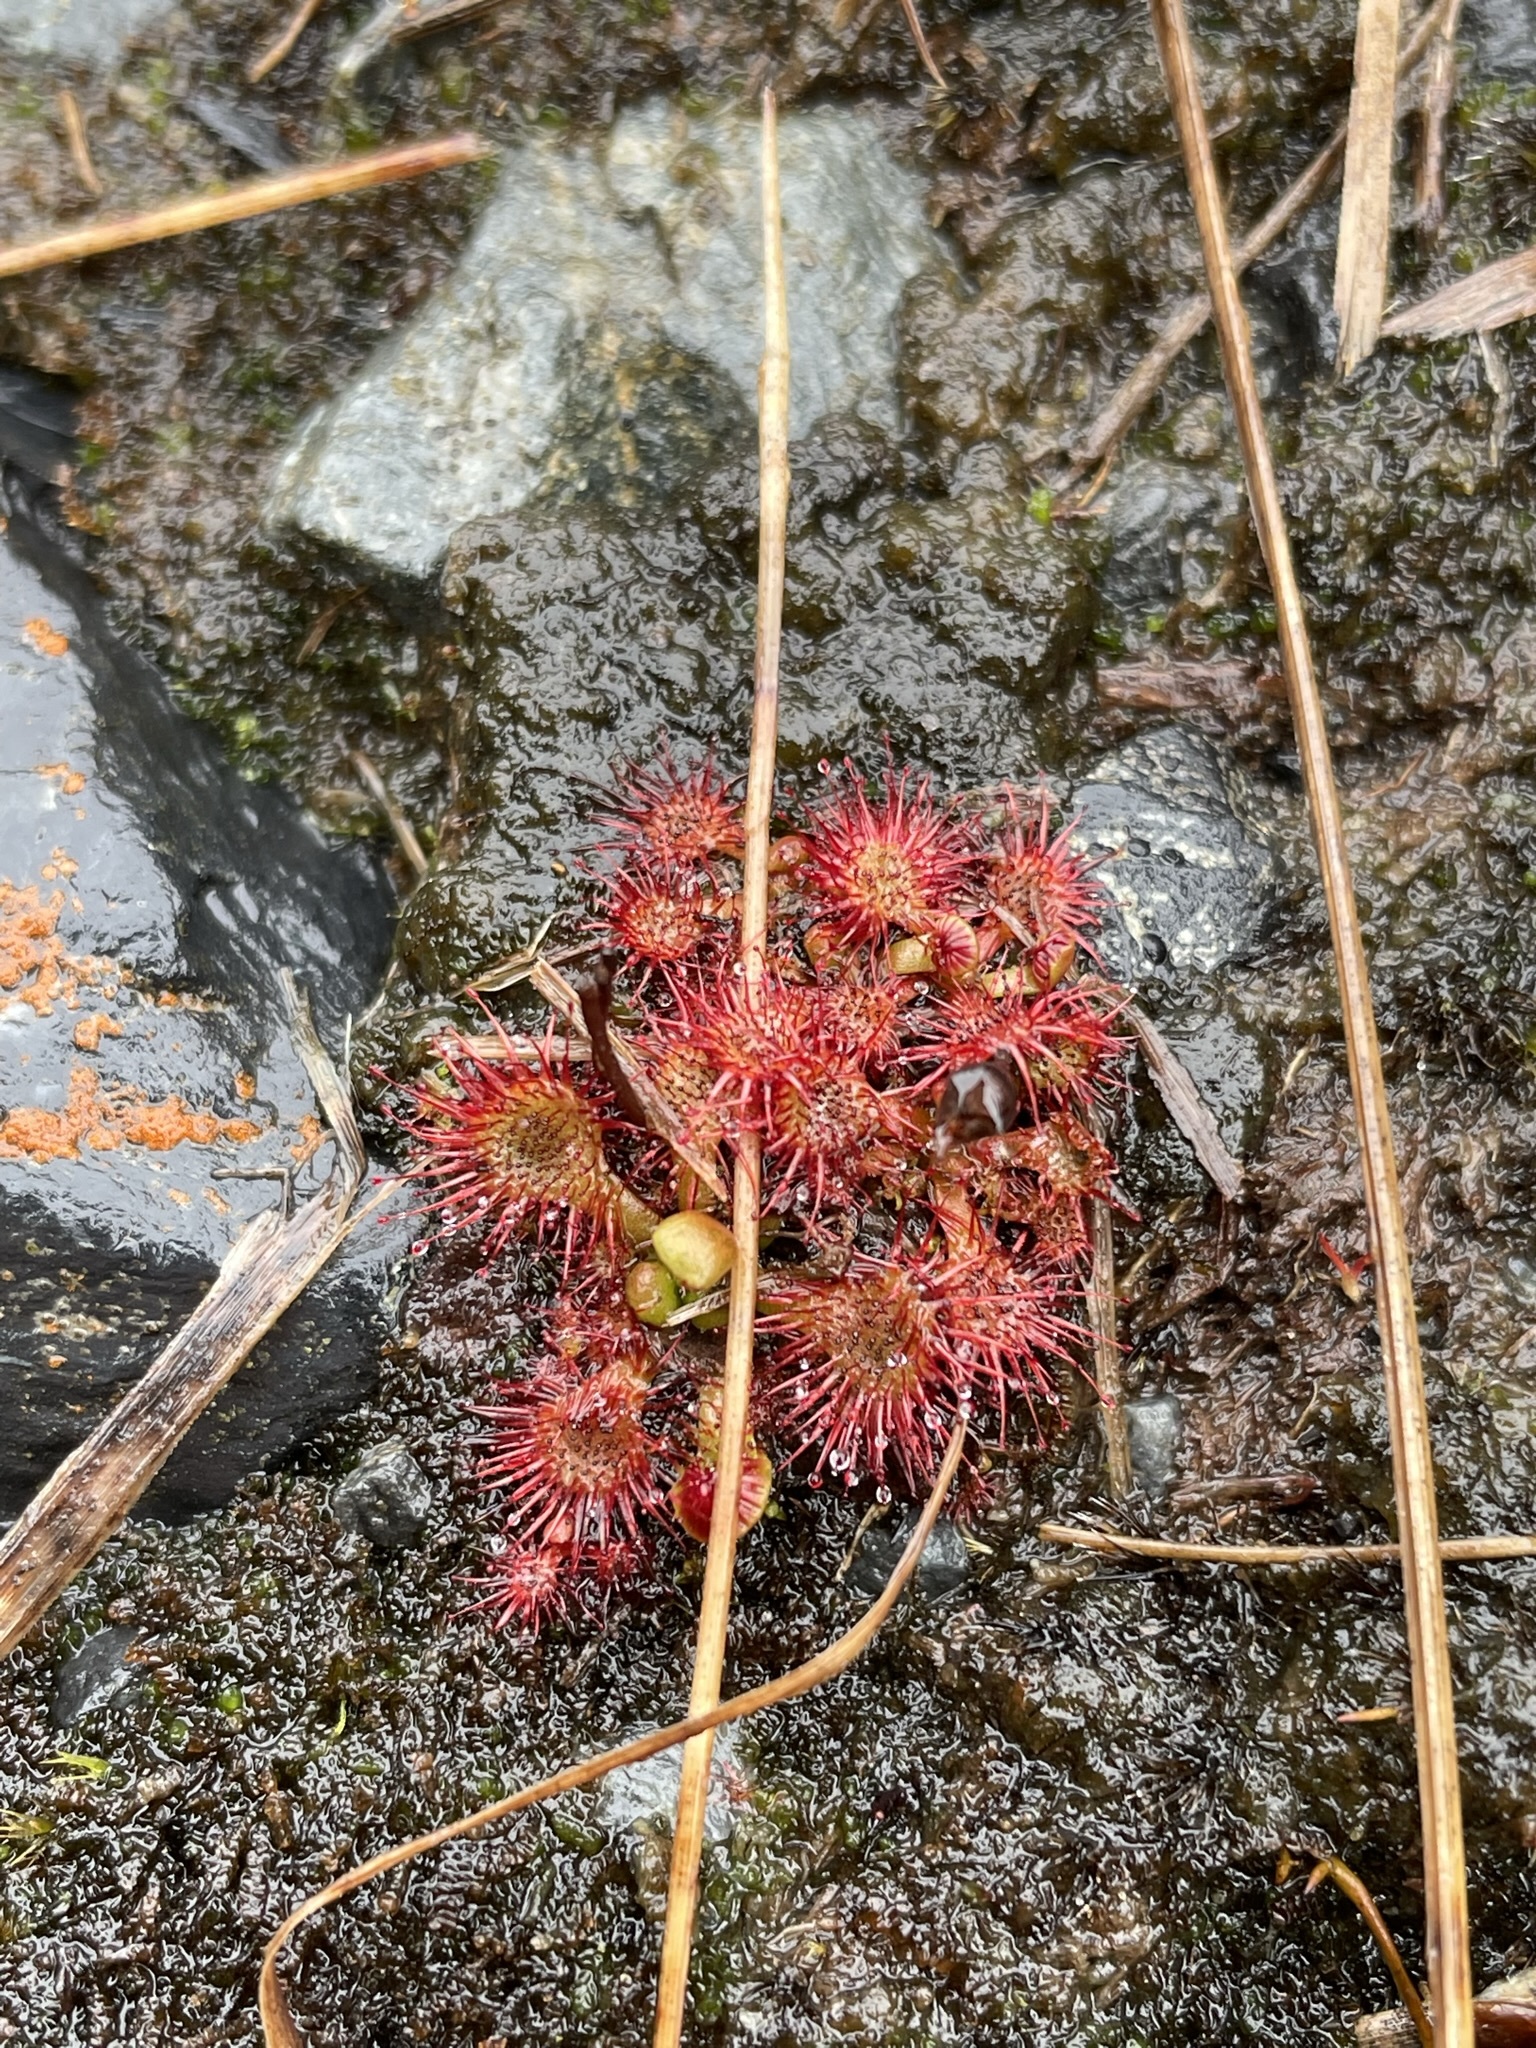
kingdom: Plantae
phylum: Tracheophyta
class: Magnoliopsida
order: Caryophyllales
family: Droseraceae
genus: Drosera
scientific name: Drosera spatulata
